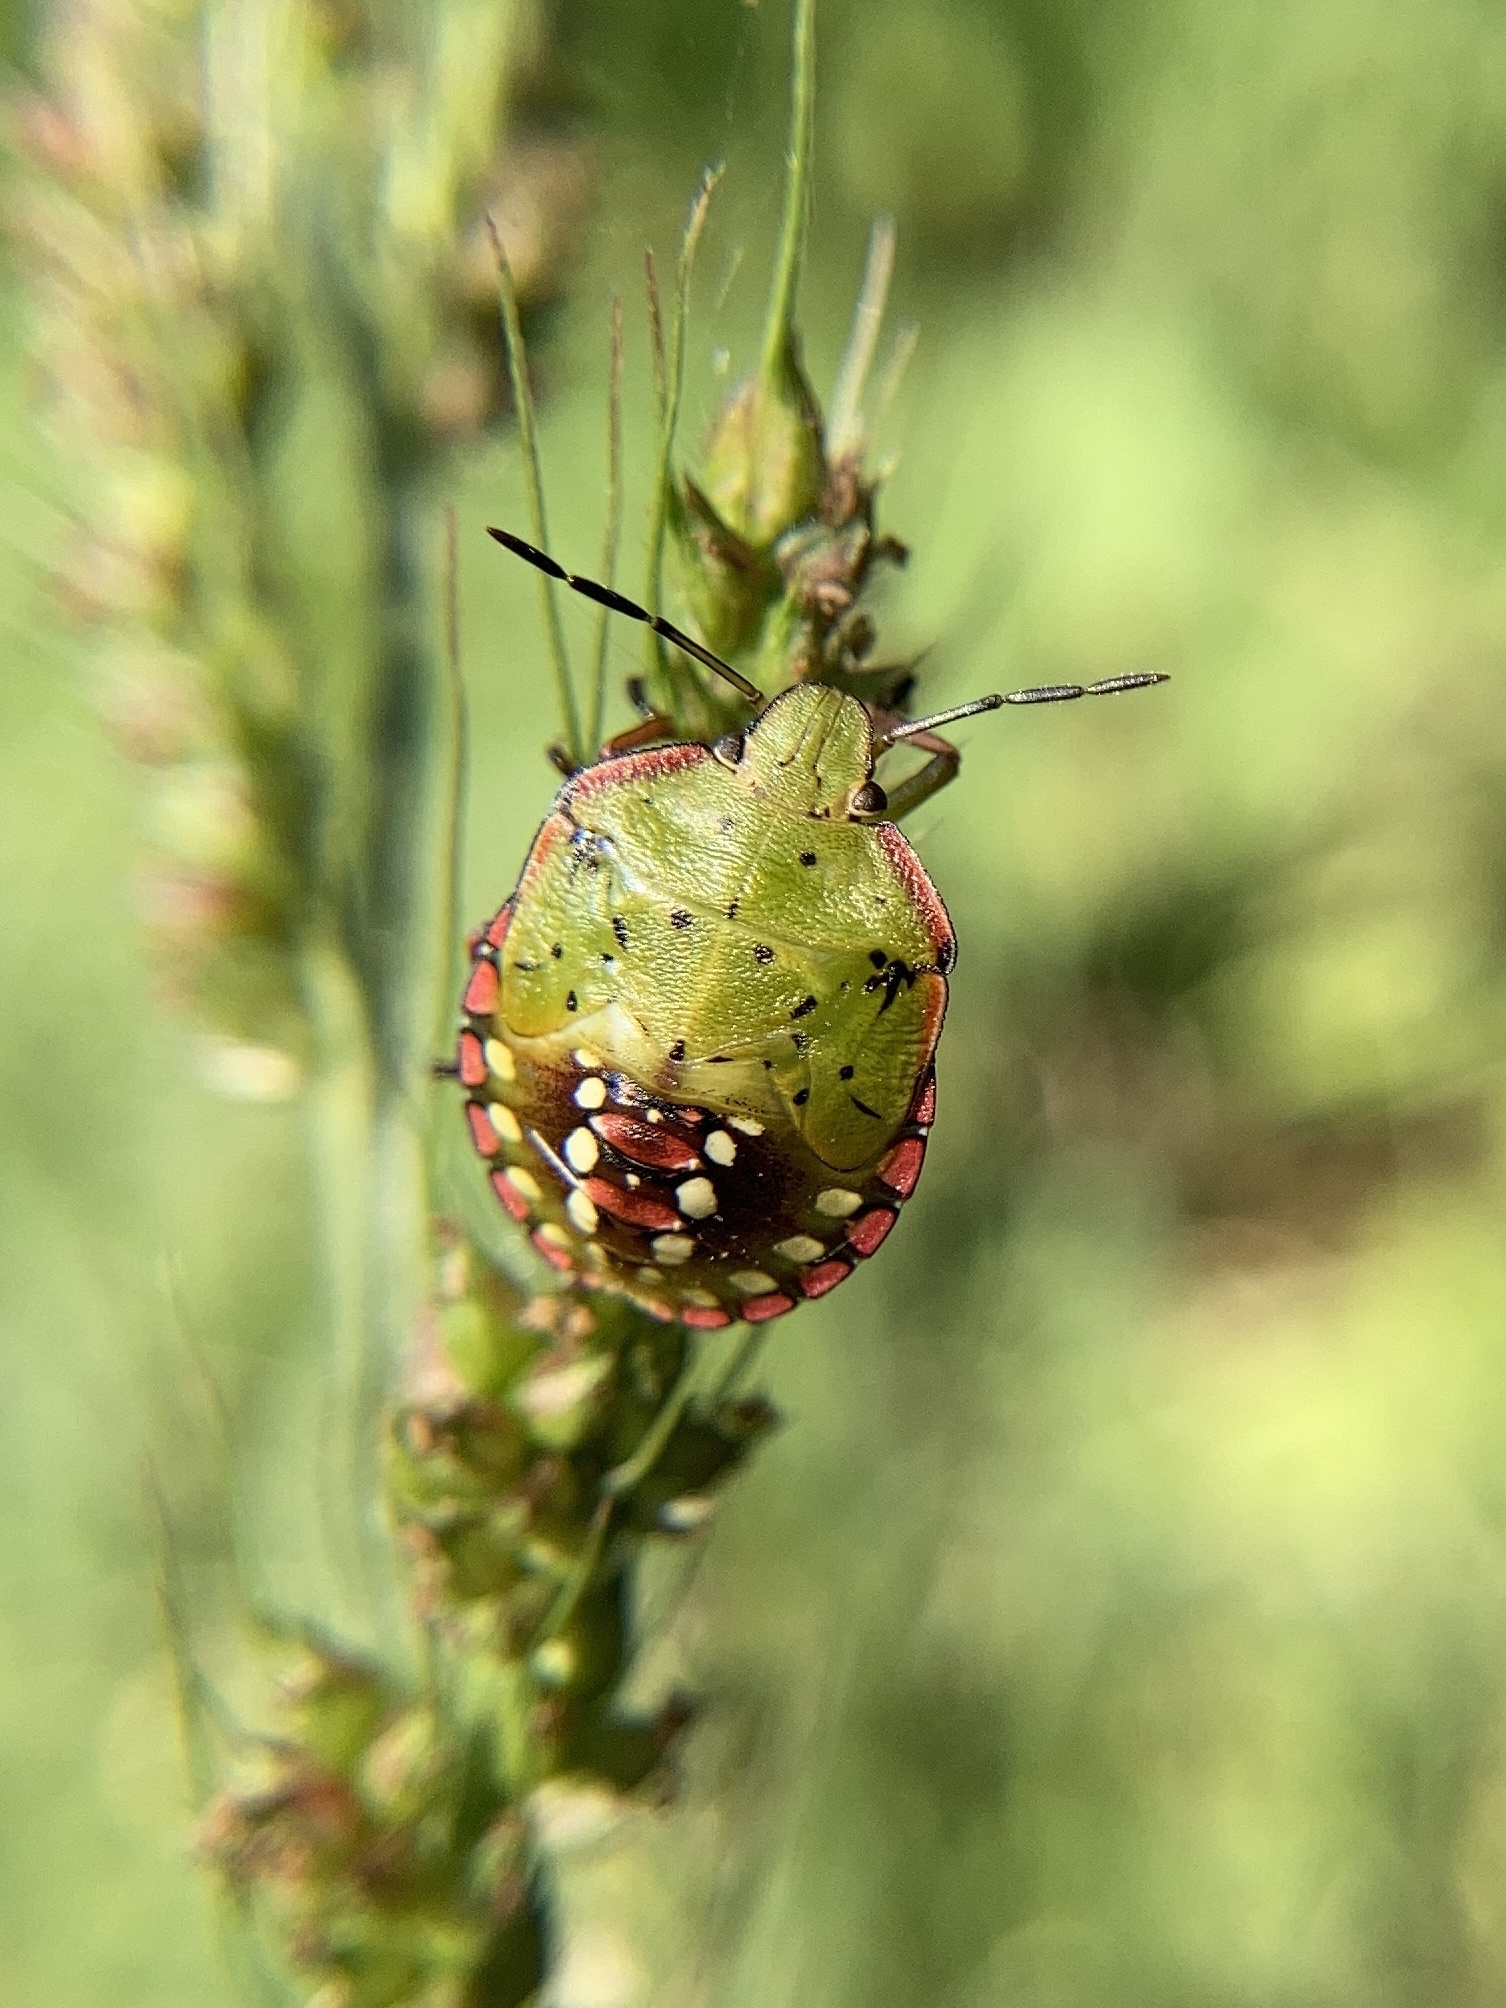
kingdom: Animalia
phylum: Arthropoda
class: Insecta
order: Hemiptera
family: Pentatomidae
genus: Nezara
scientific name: Nezara viridula
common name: Southern green stink bug
